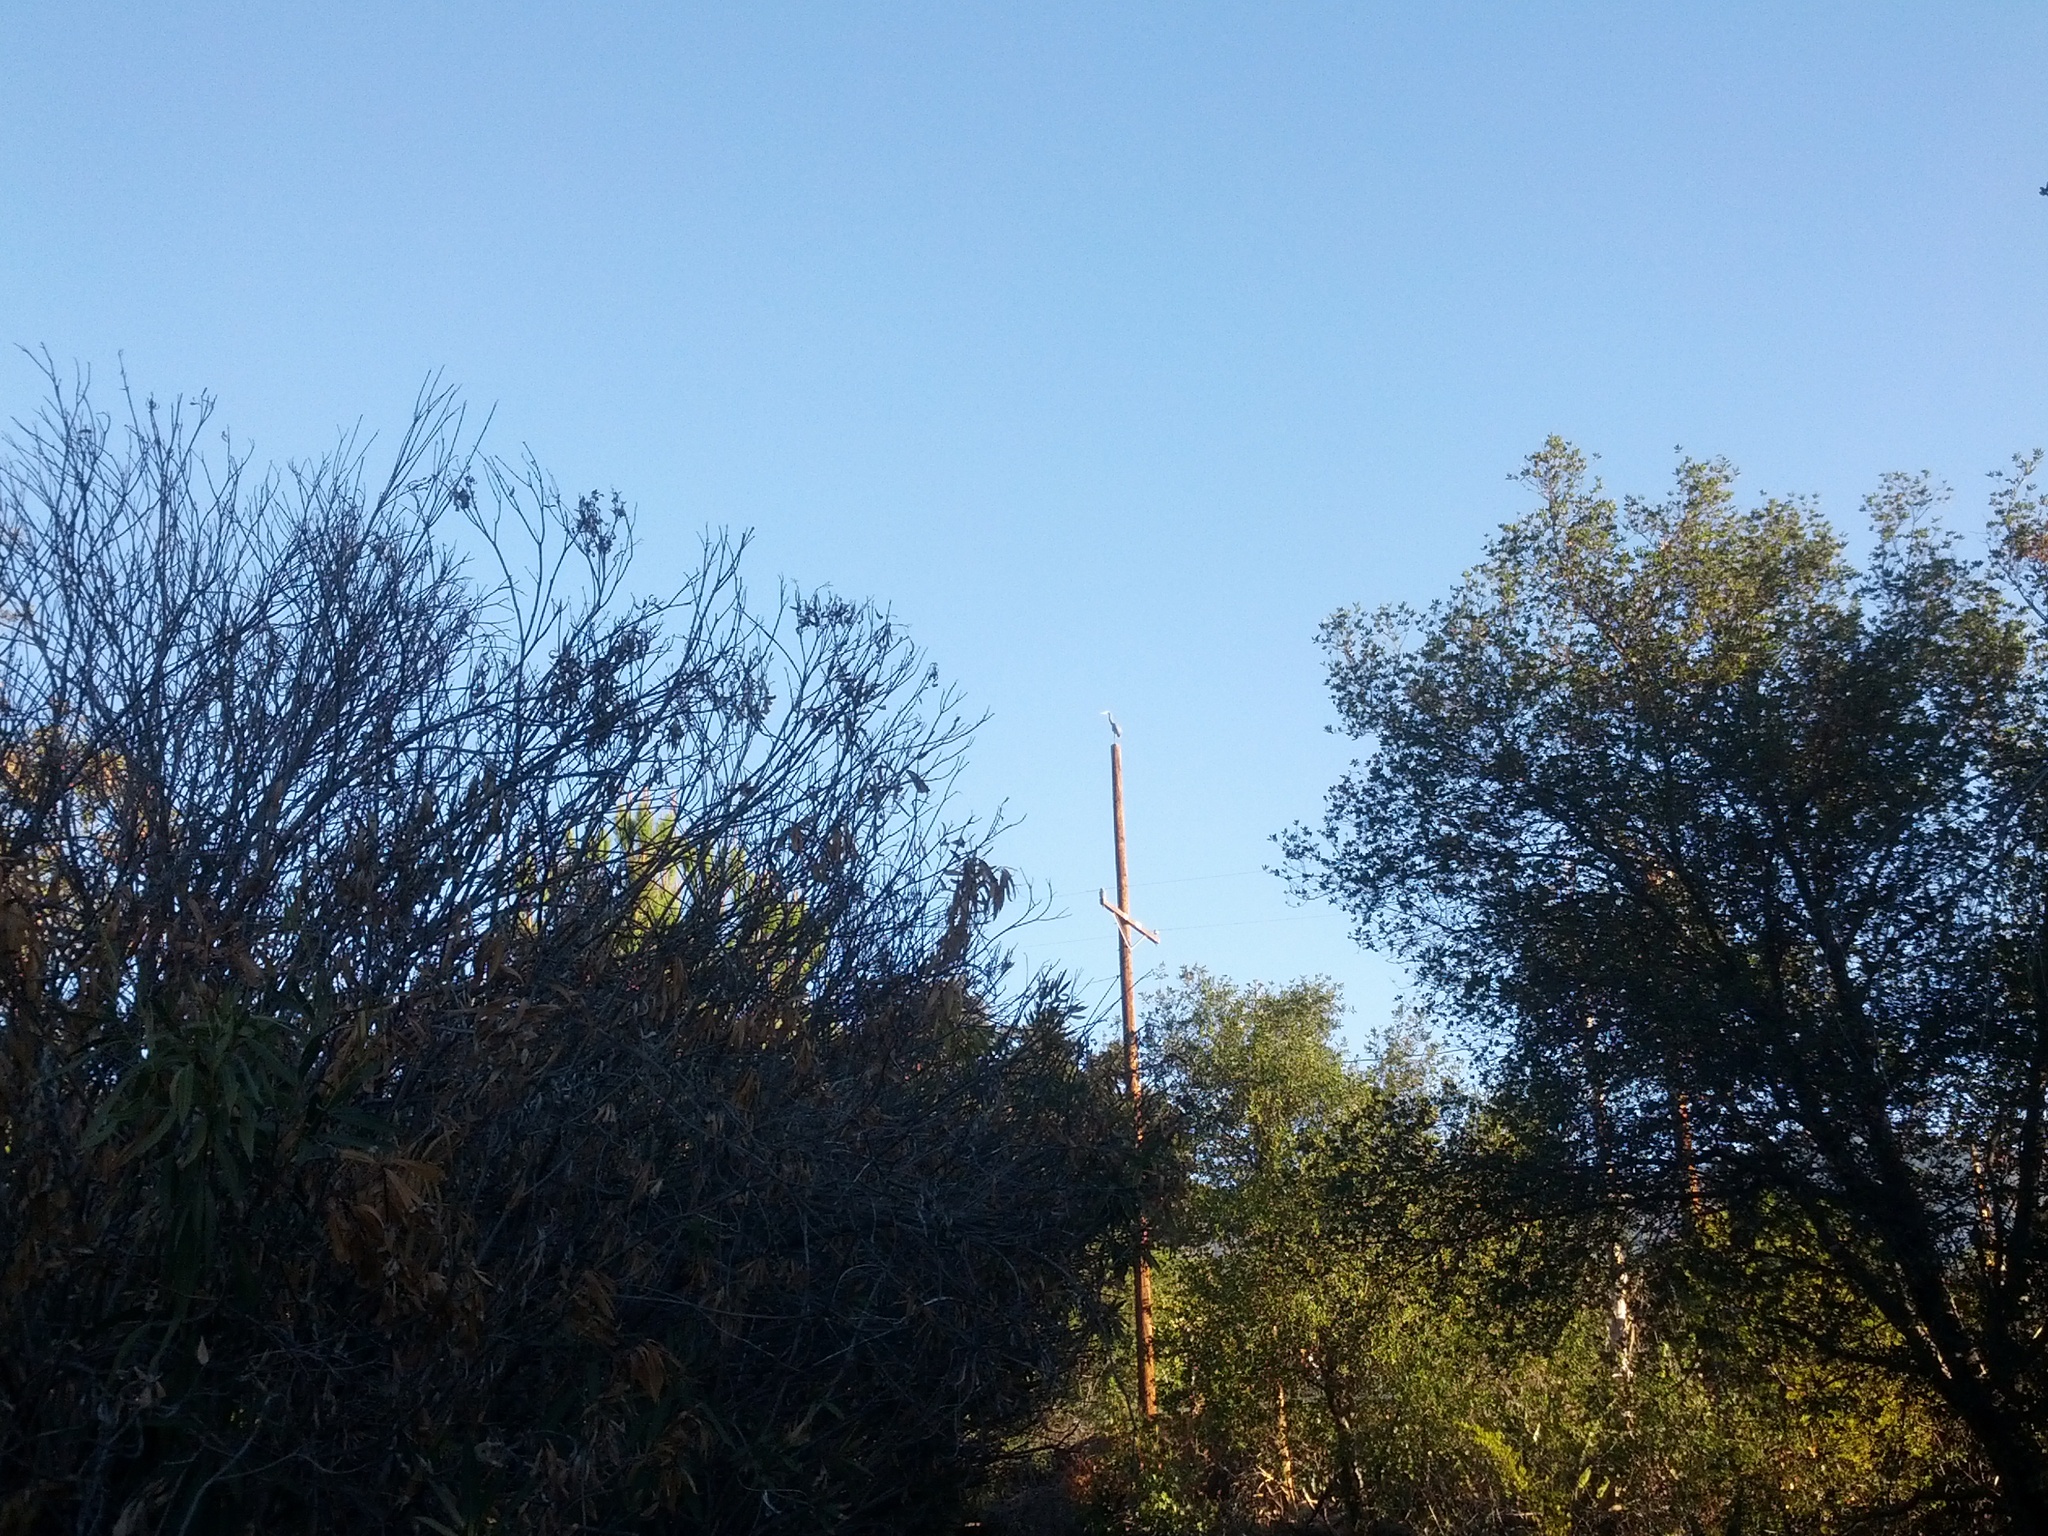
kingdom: Animalia
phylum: Chordata
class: Aves
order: Pelecaniformes
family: Ardeidae
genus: Ardea
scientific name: Ardea herodias
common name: Great blue heron
